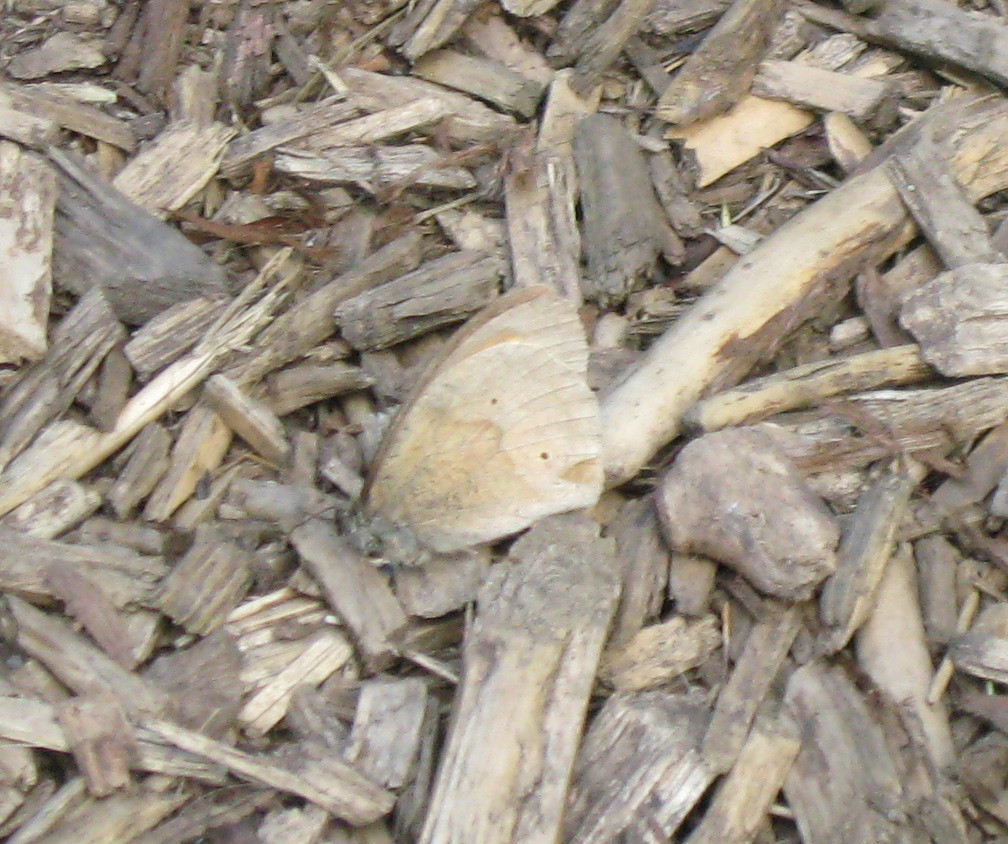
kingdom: Animalia
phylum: Arthropoda
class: Insecta
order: Lepidoptera
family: Nymphalidae
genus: Maniola
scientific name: Maniola jurtina
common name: Meadow brown
